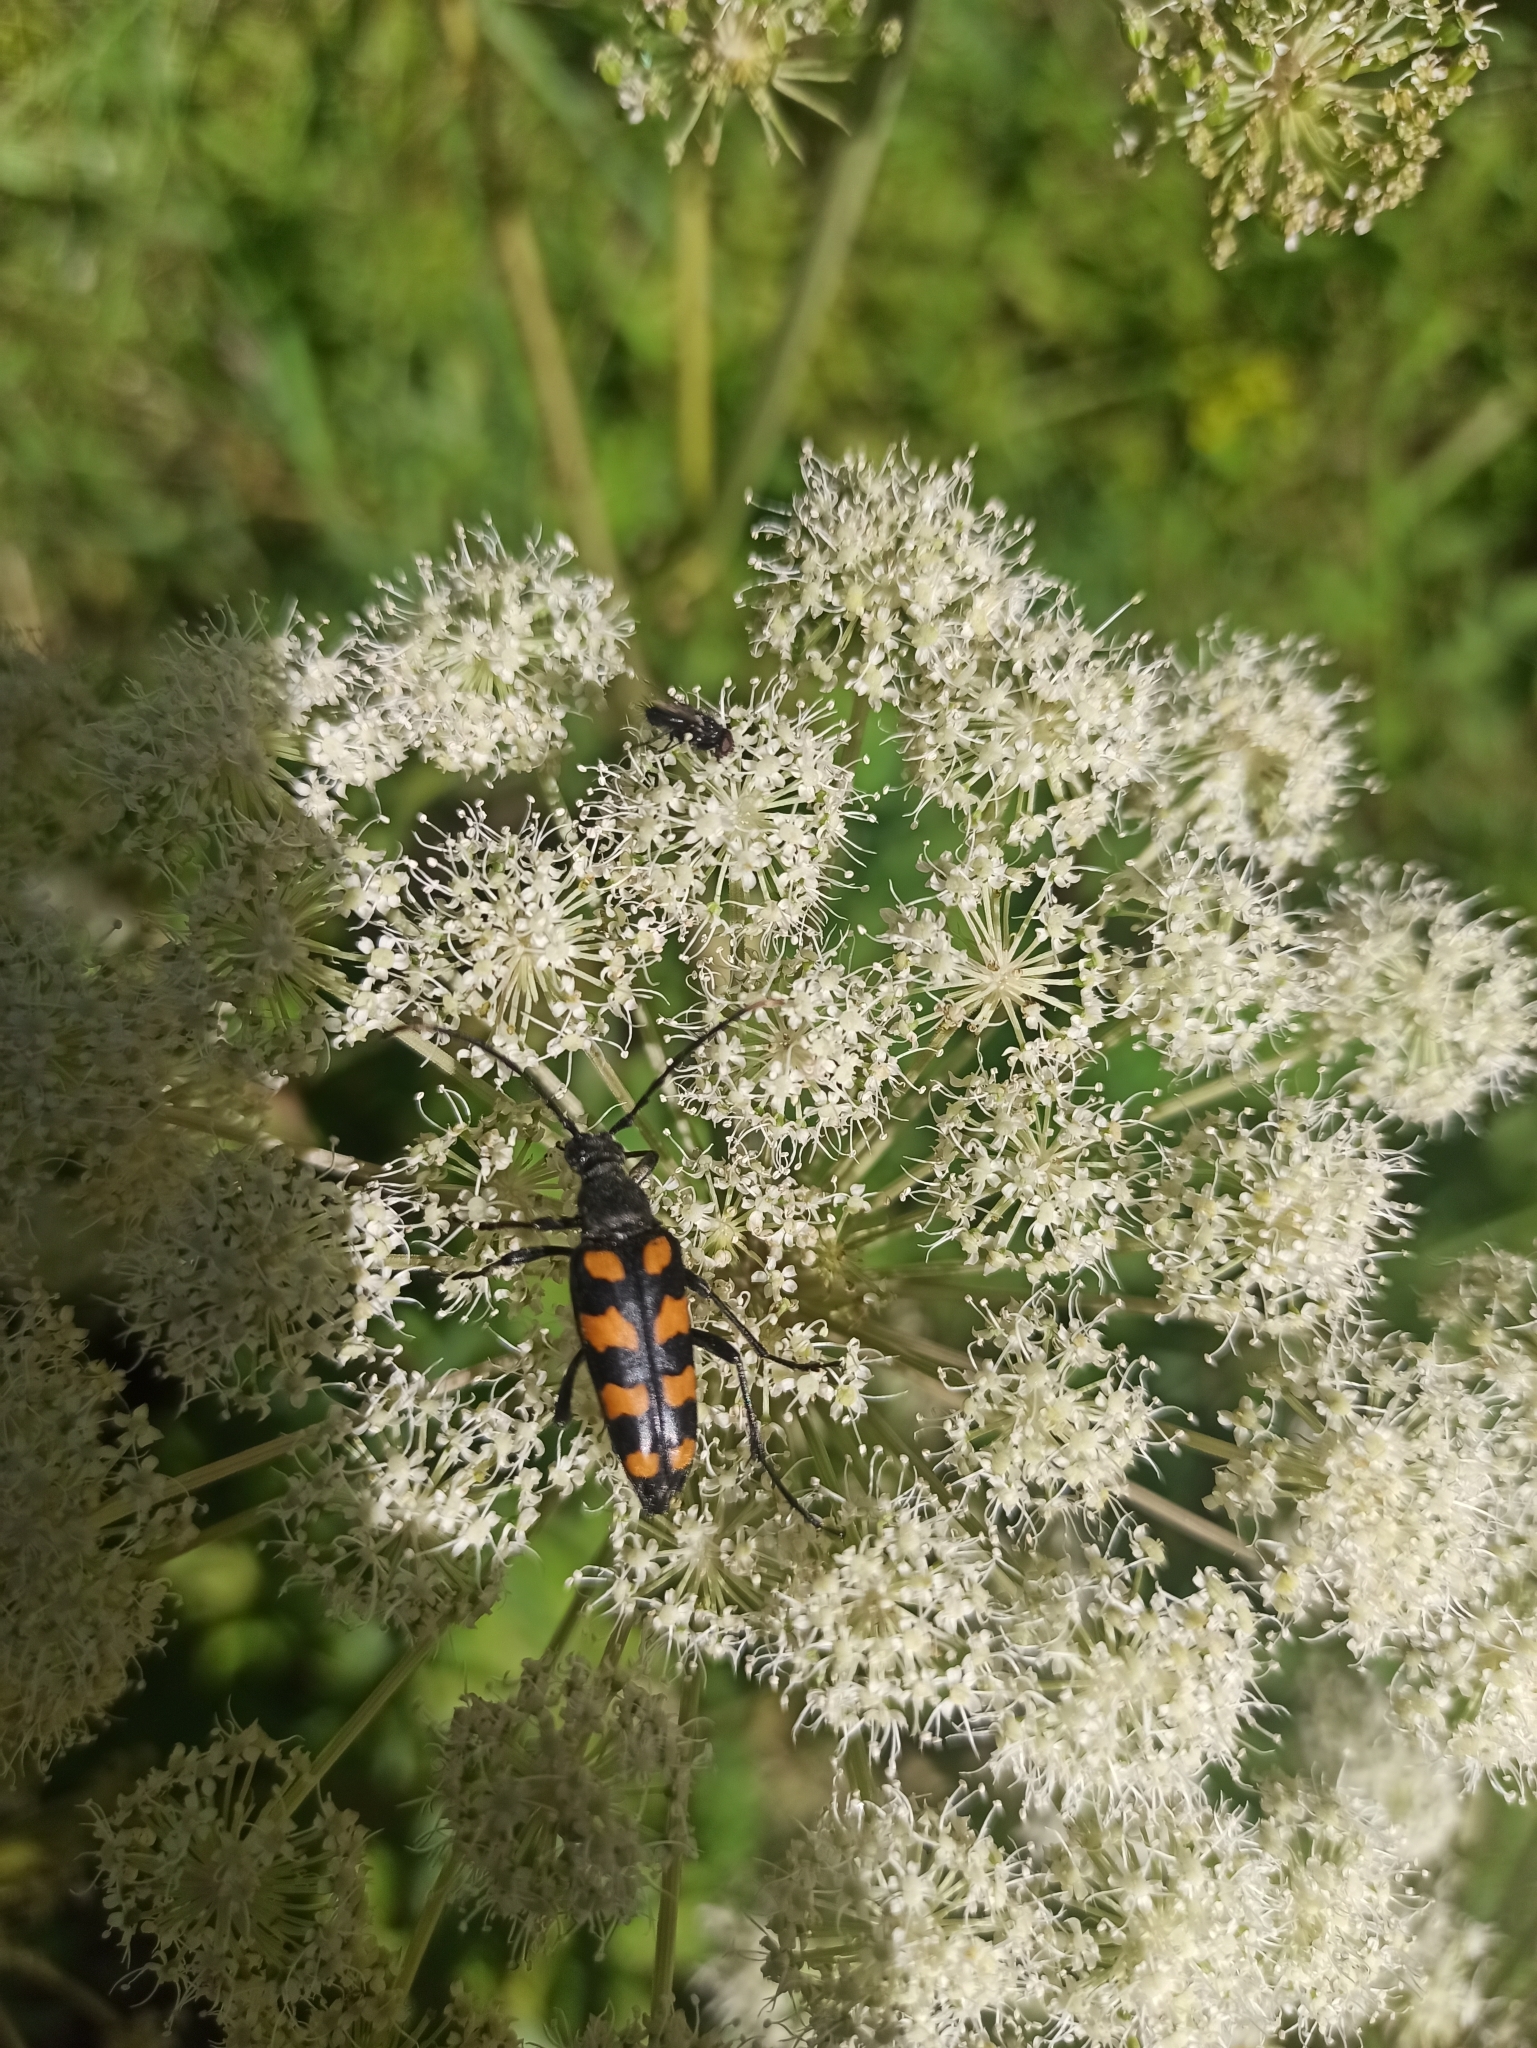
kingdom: Animalia
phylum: Arthropoda
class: Insecta
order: Coleoptera
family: Cerambycidae
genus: Leptura
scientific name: Leptura quadrifasciata
